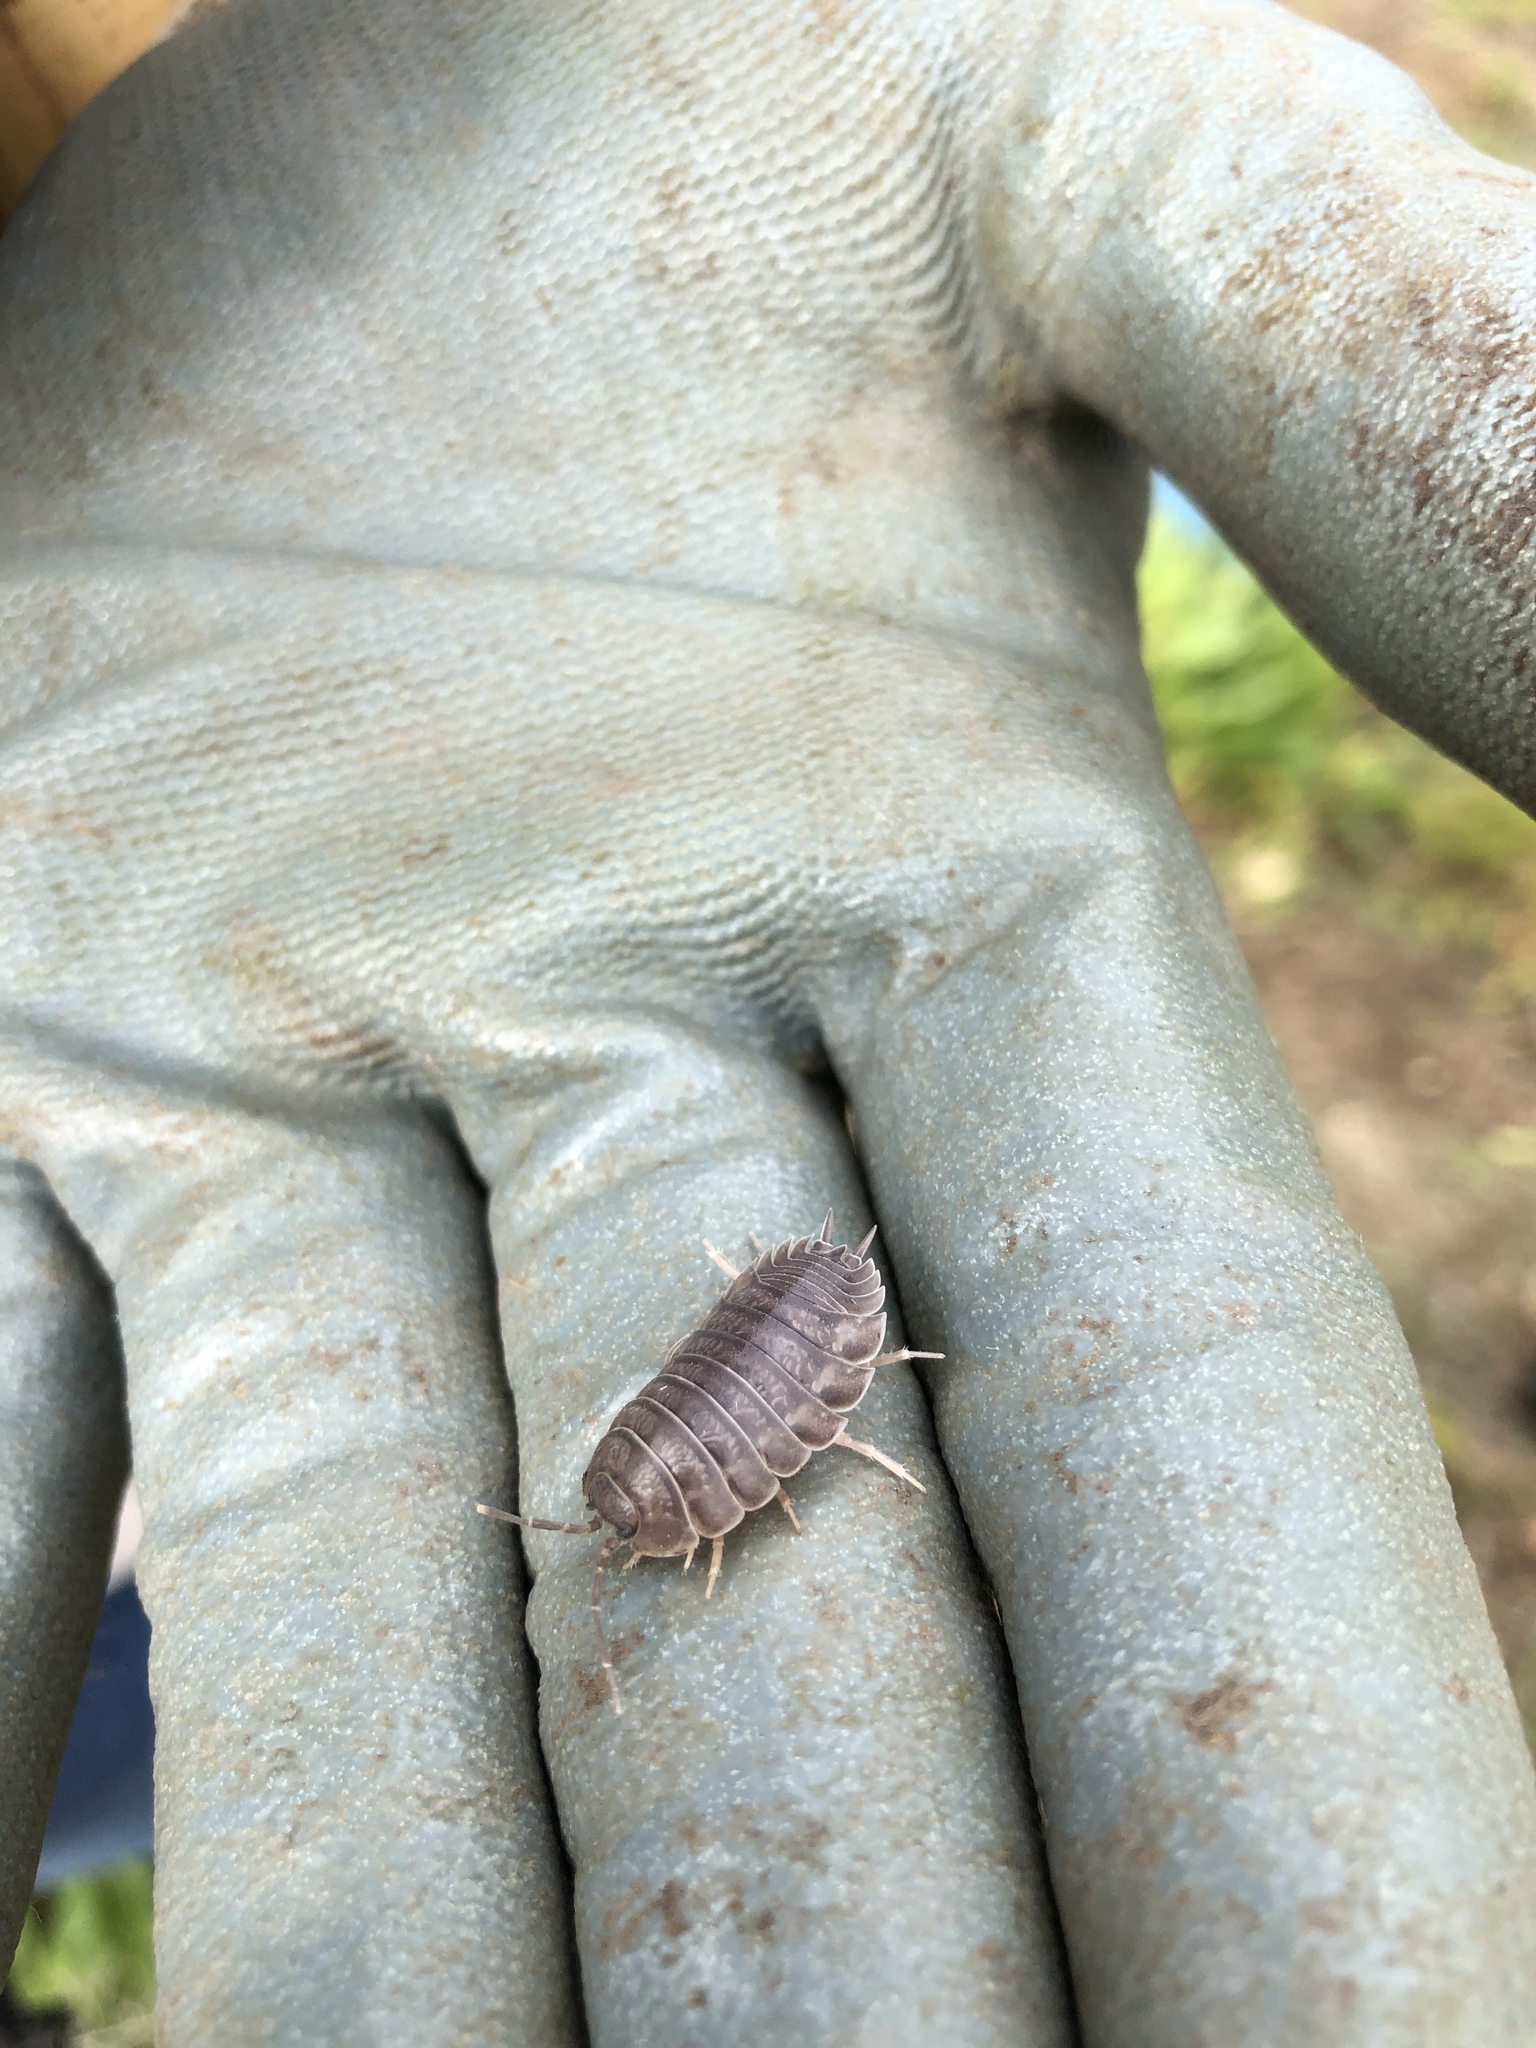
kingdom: Animalia
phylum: Arthropoda
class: Malacostraca
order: Isopoda
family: Porcellionidae
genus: Porcellio
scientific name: Porcellio laevis
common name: Swift woodlouse
